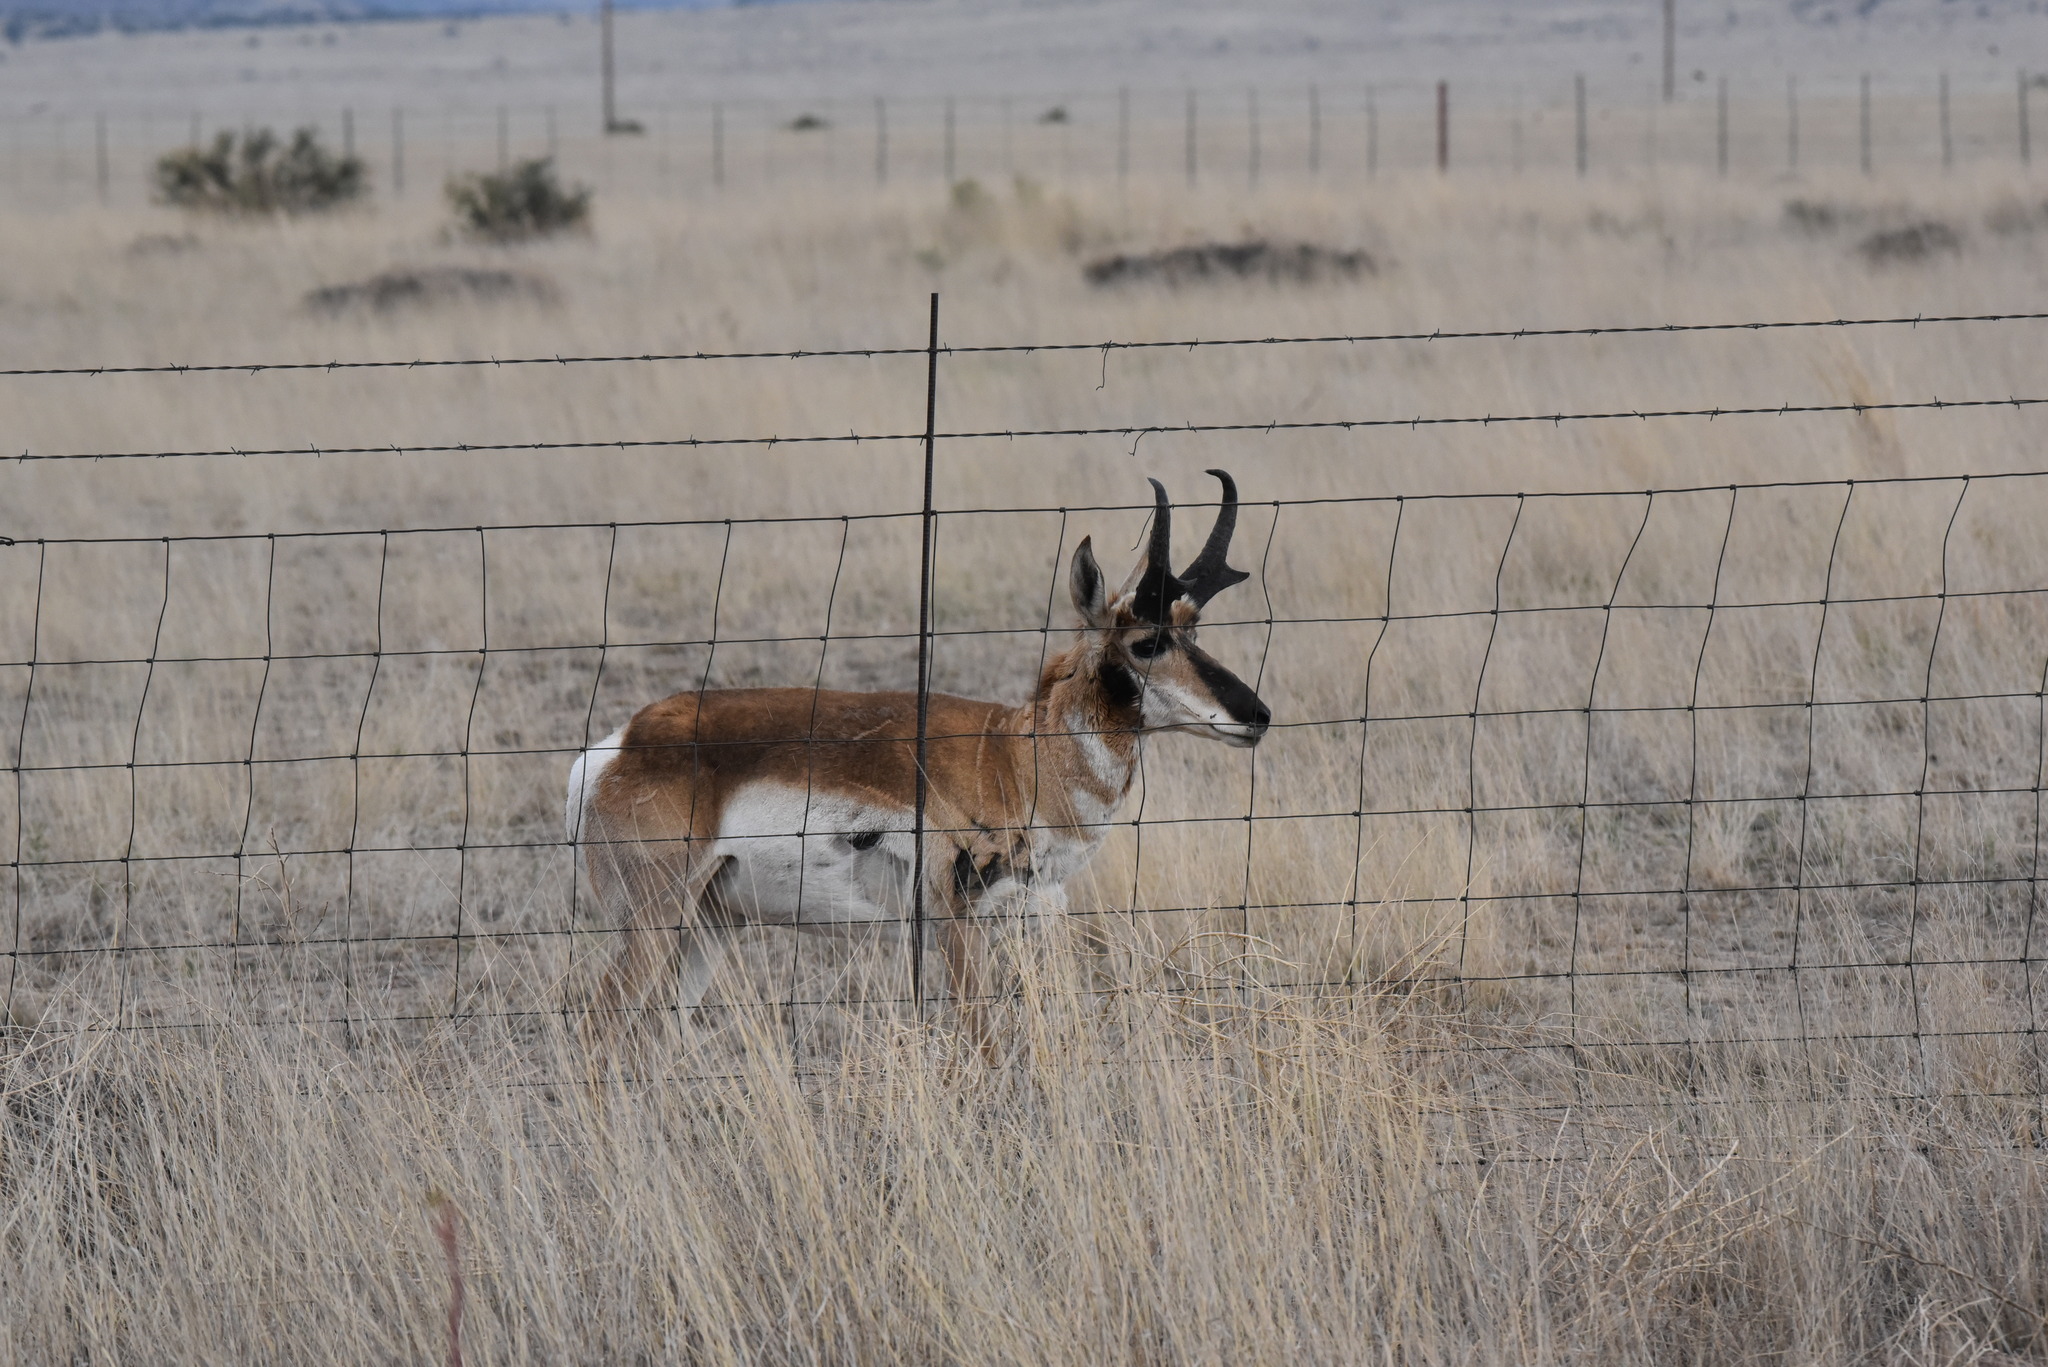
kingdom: Animalia
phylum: Chordata
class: Mammalia
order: Artiodactyla
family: Antilocapridae
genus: Antilocapra
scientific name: Antilocapra americana
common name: Pronghorn
